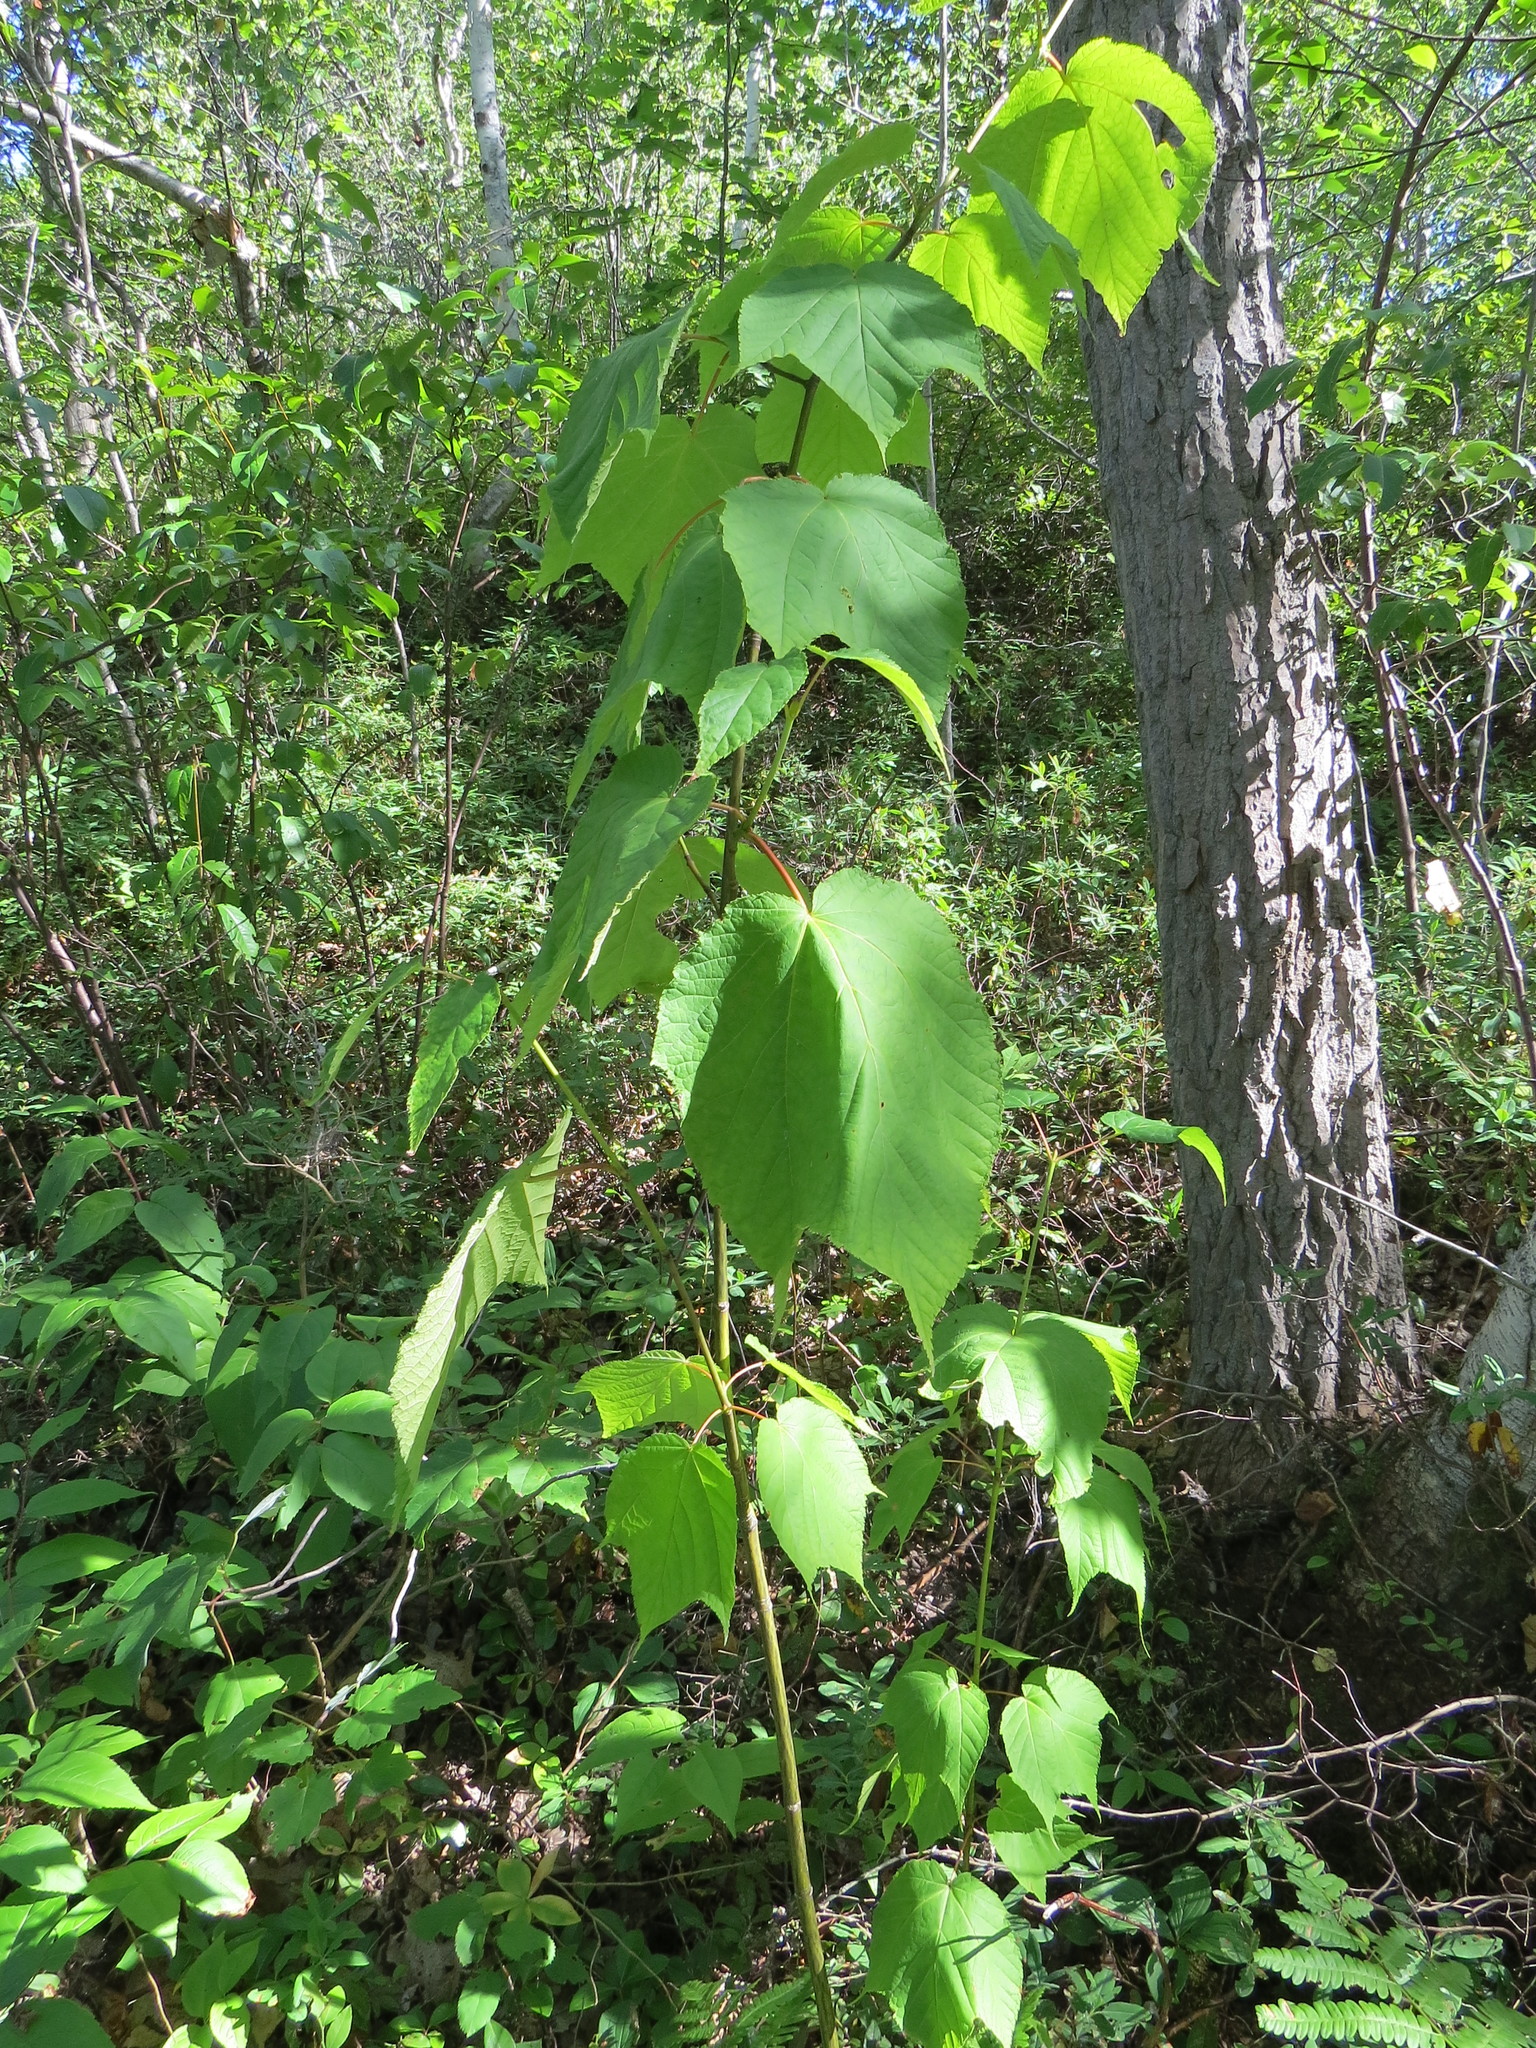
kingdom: Plantae
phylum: Tracheophyta
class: Magnoliopsida
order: Sapindales
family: Sapindaceae
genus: Acer
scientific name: Acer pensylvanicum
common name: Moosewood
